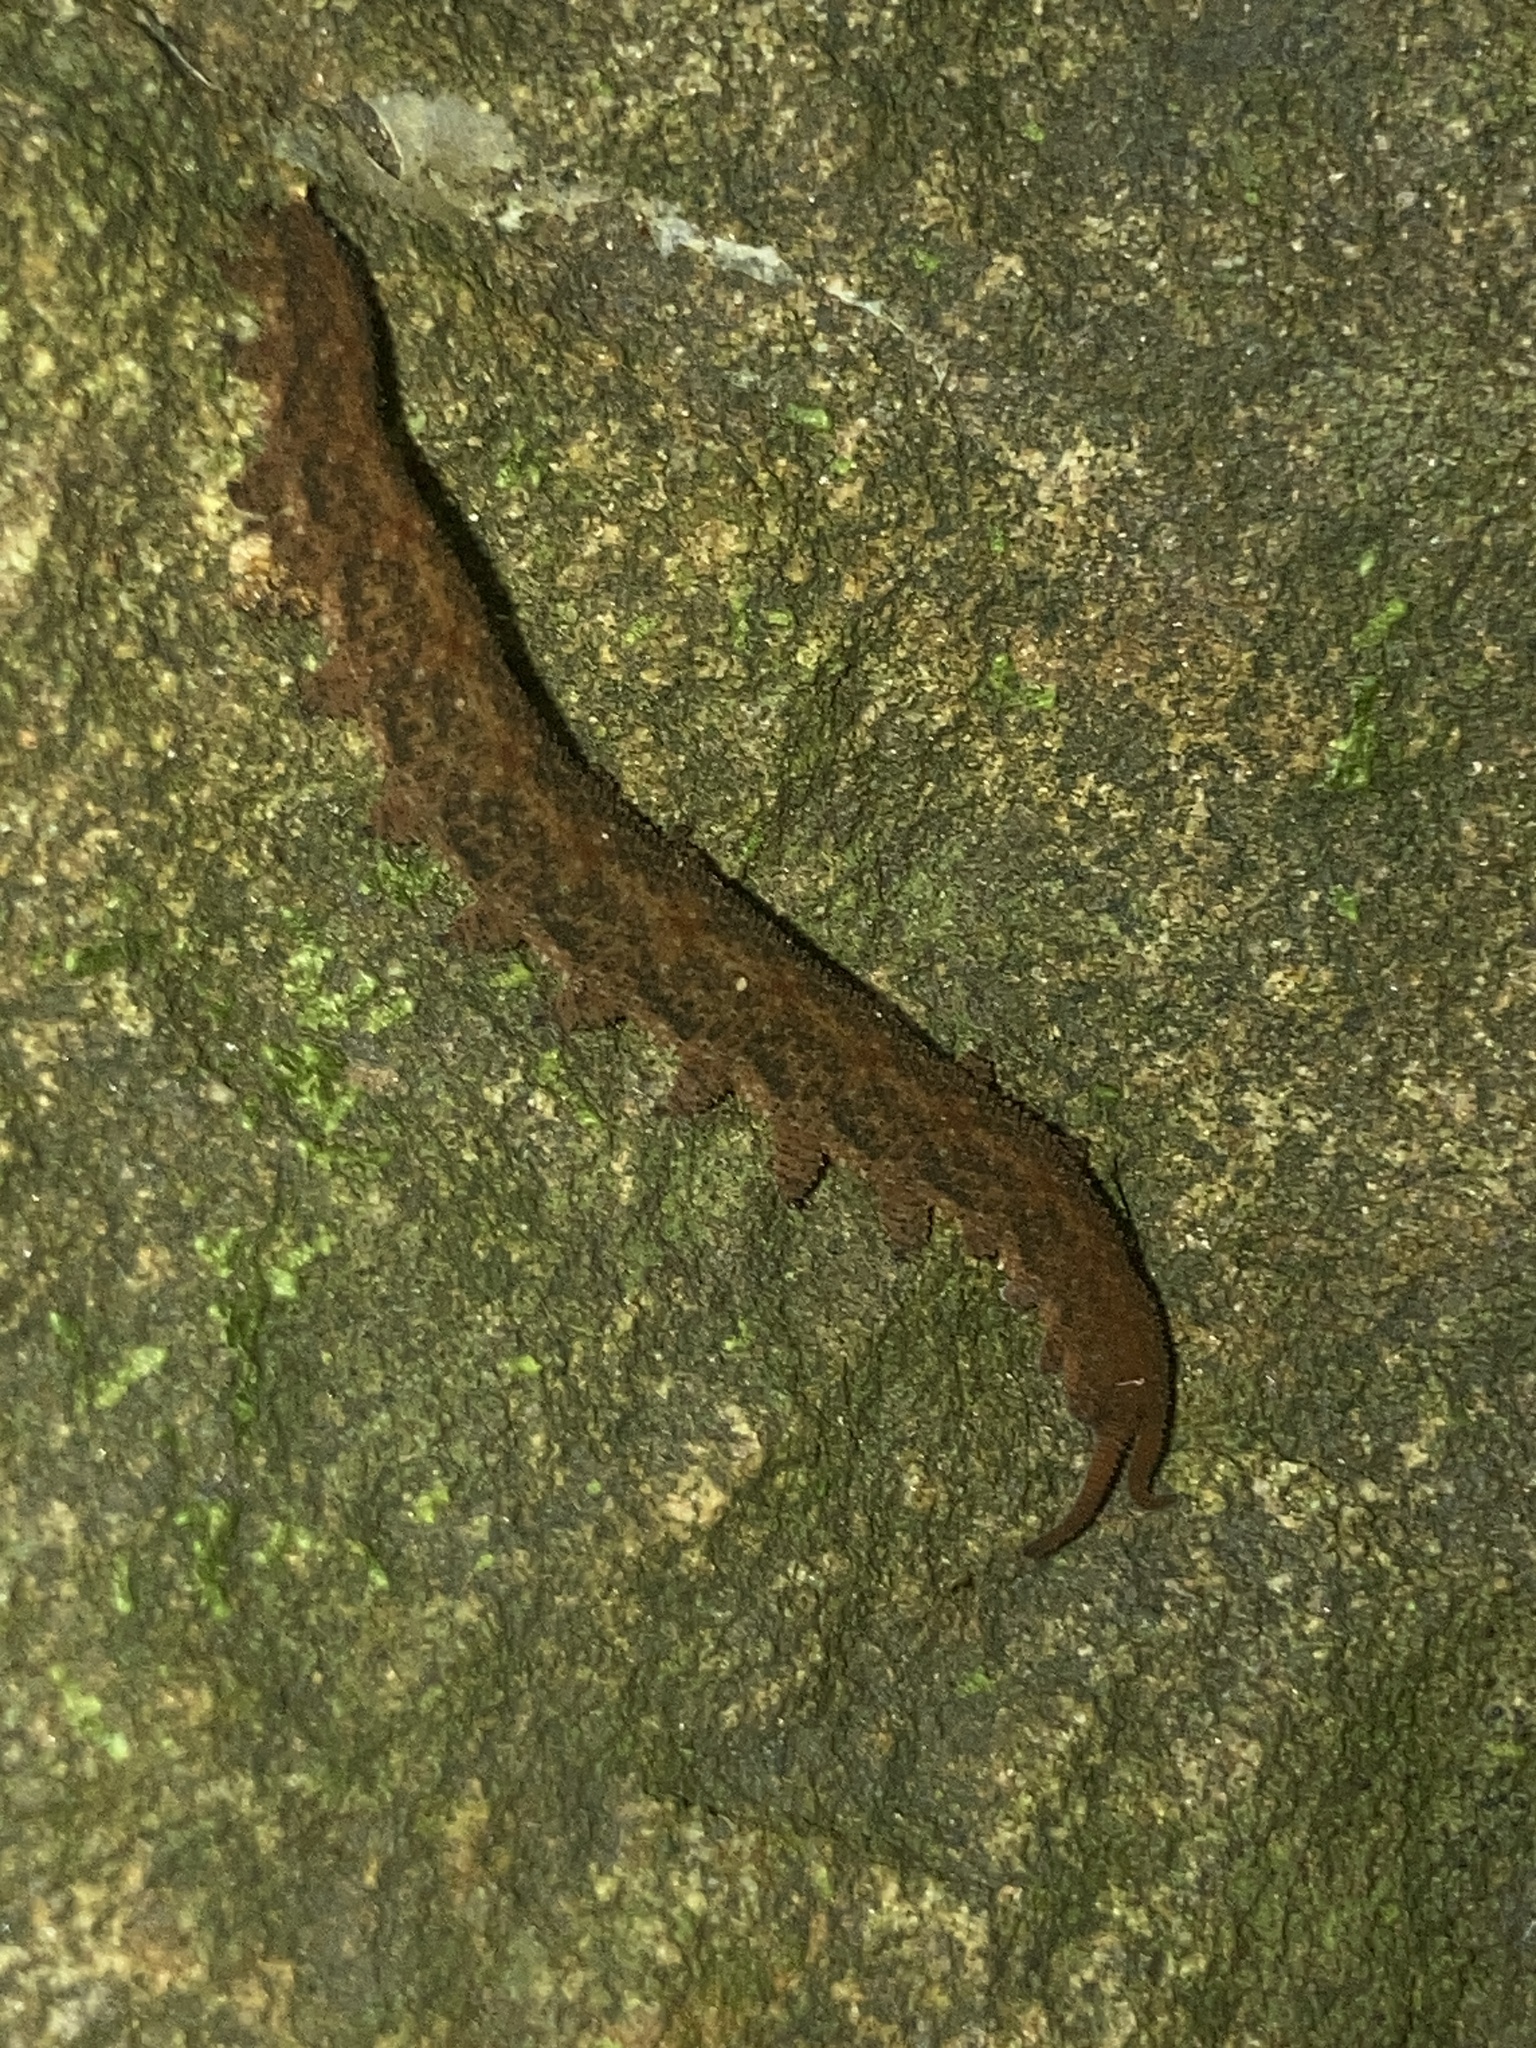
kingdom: Animalia
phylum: Onychophora
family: Peripatopsidae
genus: Anoplokaros
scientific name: Anoplokaros keerensis
